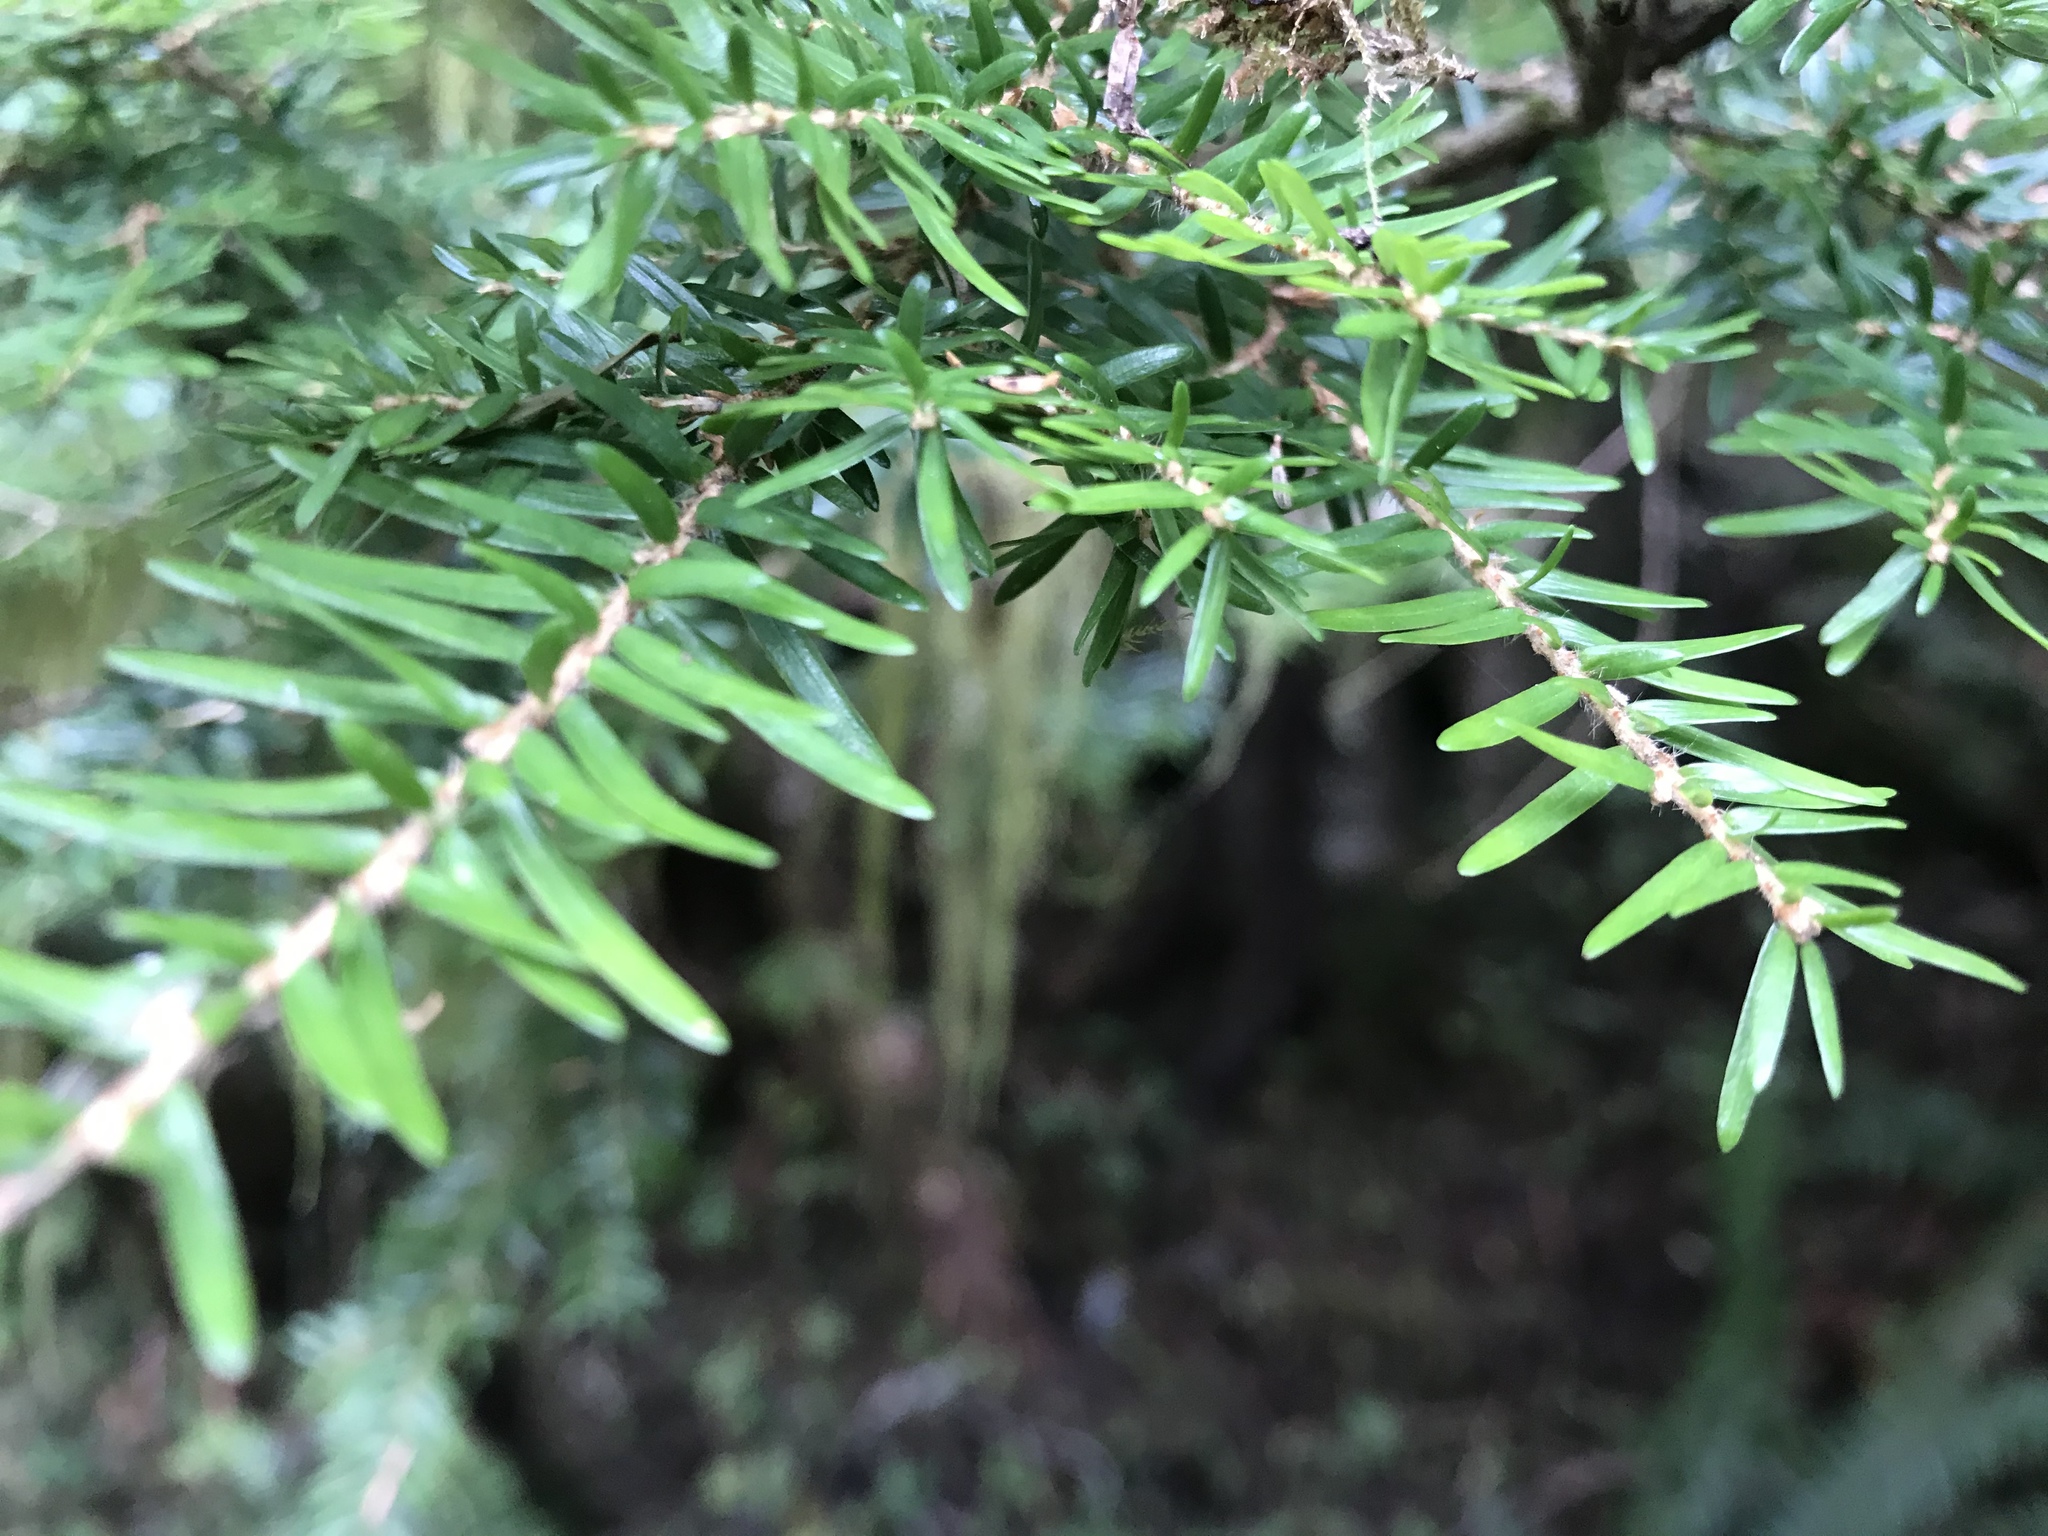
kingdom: Plantae
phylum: Tracheophyta
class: Pinopsida
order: Pinales
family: Pinaceae
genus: Tsuga
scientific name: Tsuga heterophylla
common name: Western hemlock
